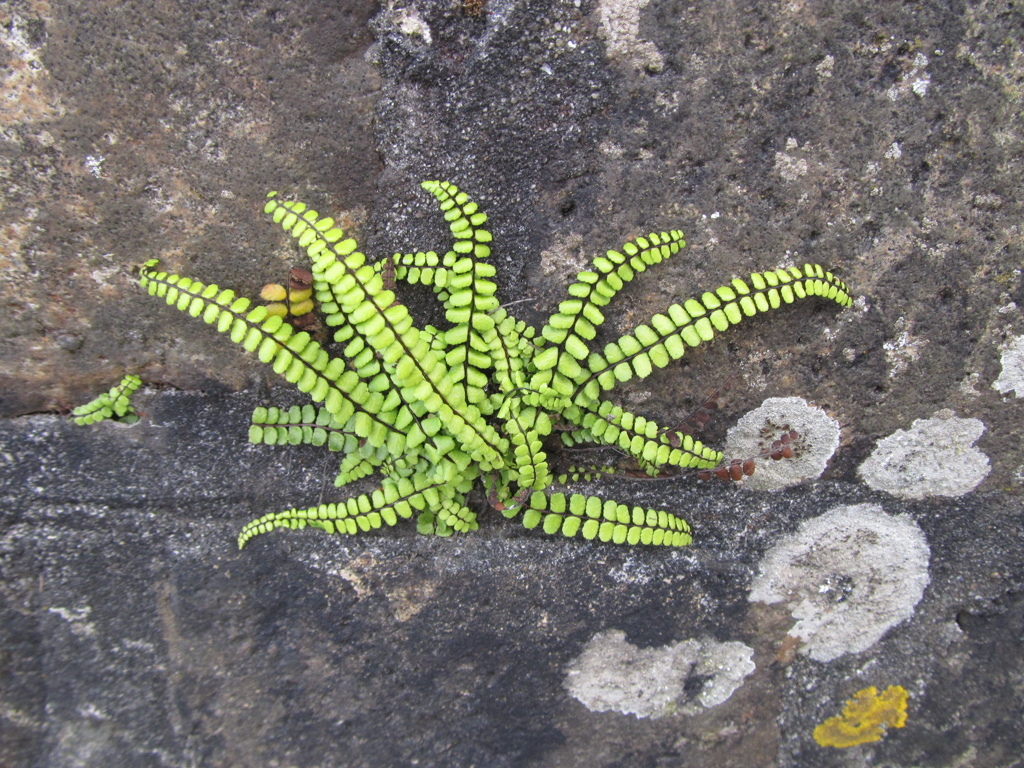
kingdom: Plantae
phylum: Tracheophyta
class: Polypodiopsida
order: Polypodiales
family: Aspleniaceae
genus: Asplenium
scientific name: Asplenium trichomanes
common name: Maidenhair spleenwort
